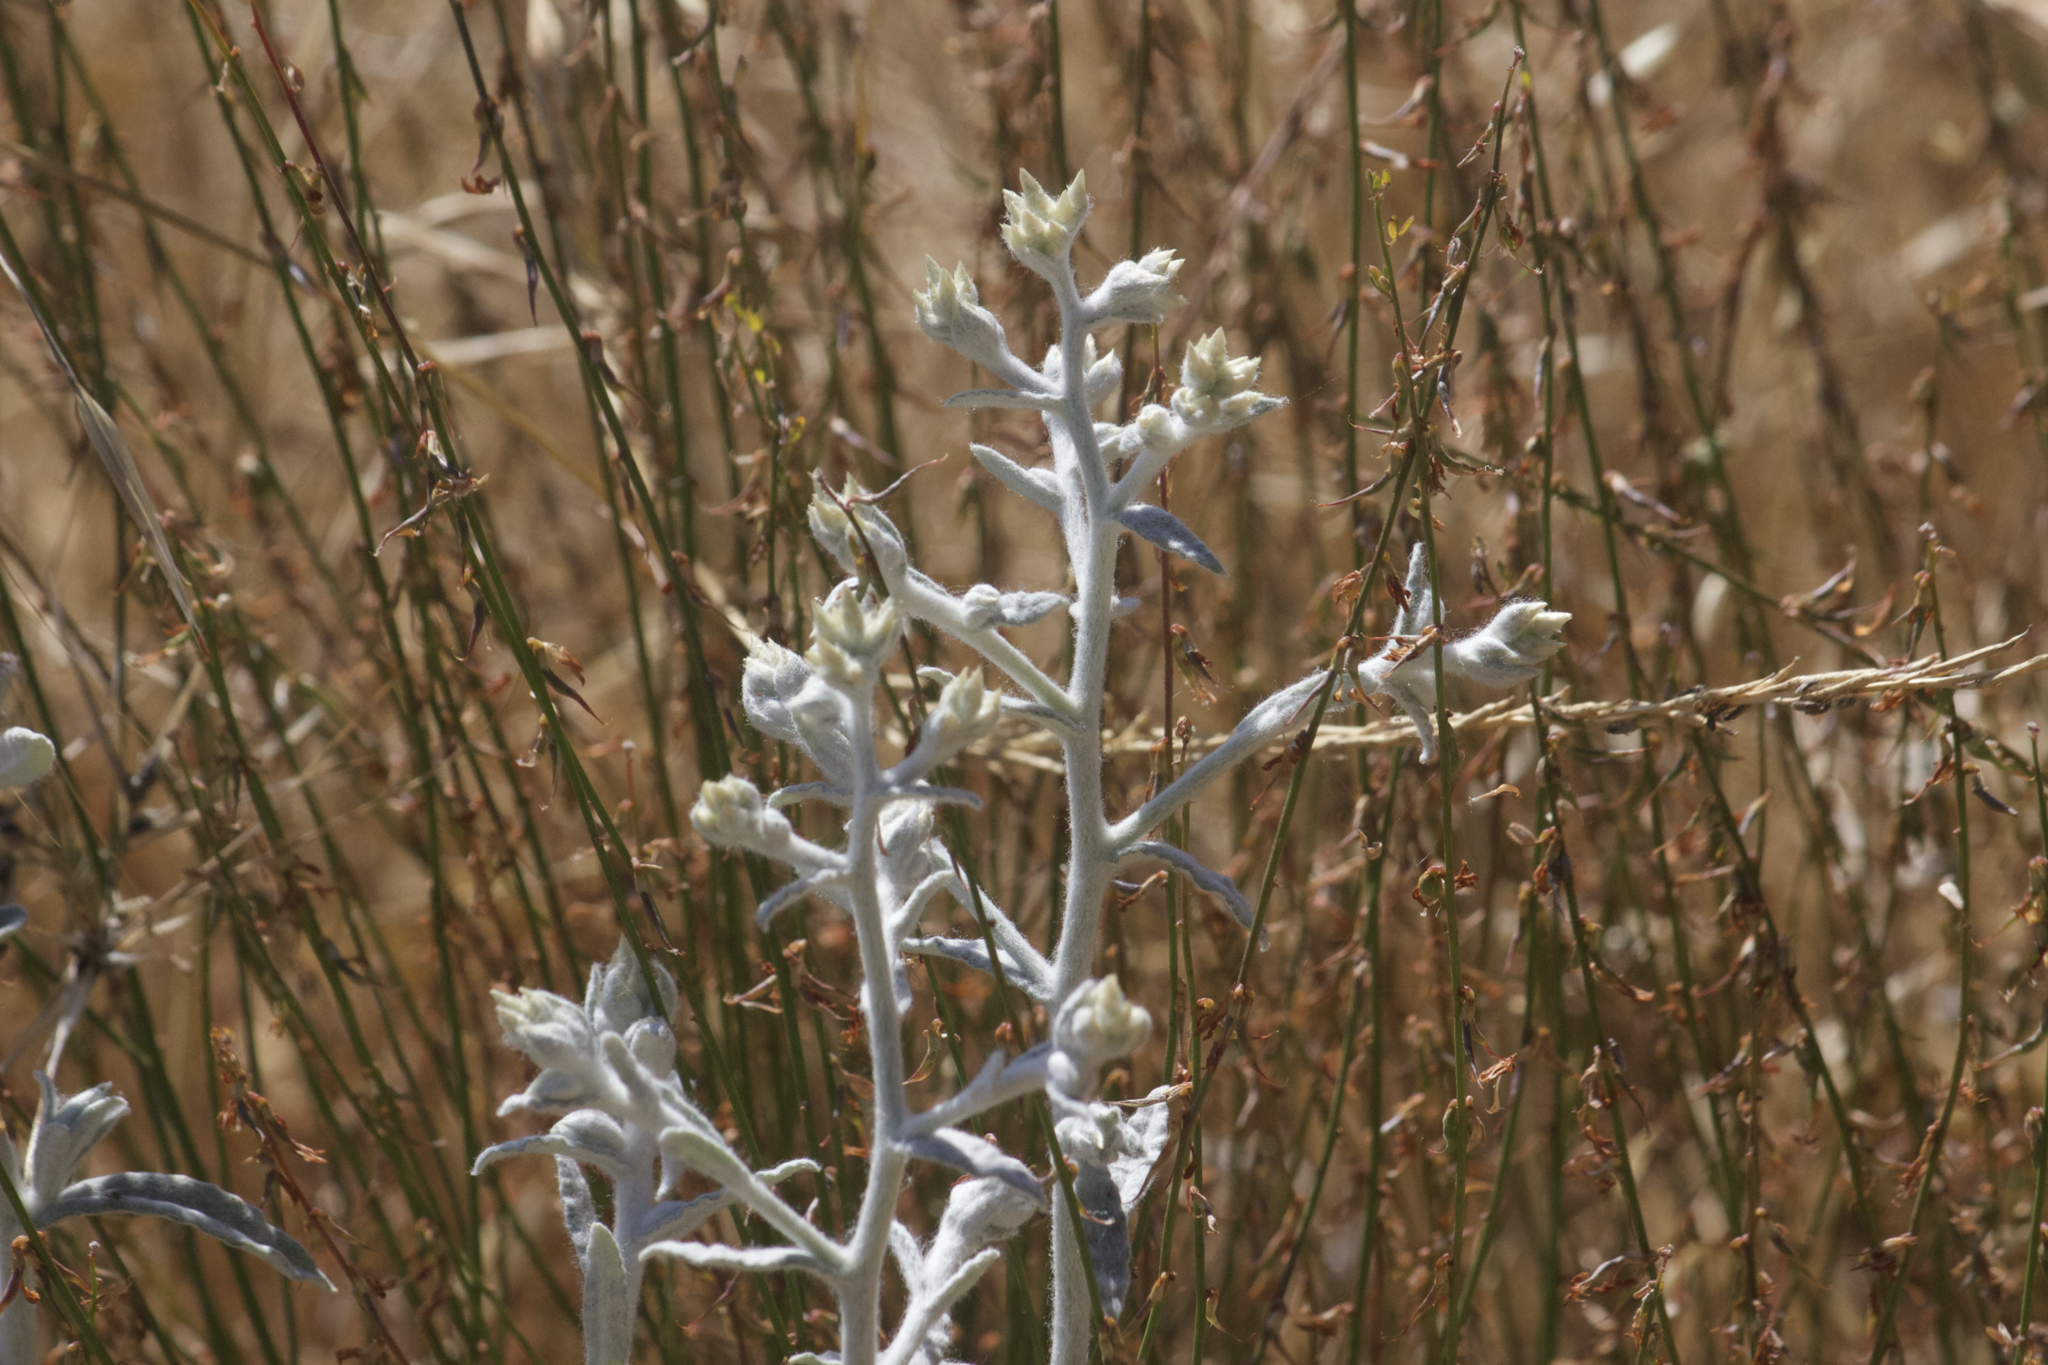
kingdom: Plantae
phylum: Tracheophyta
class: Magnoliopsida
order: Asterales
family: Asteraceae
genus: Pseudognaphalium
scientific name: Pseudognaphalium microcephalum
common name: San diego rabbit-tobacco
